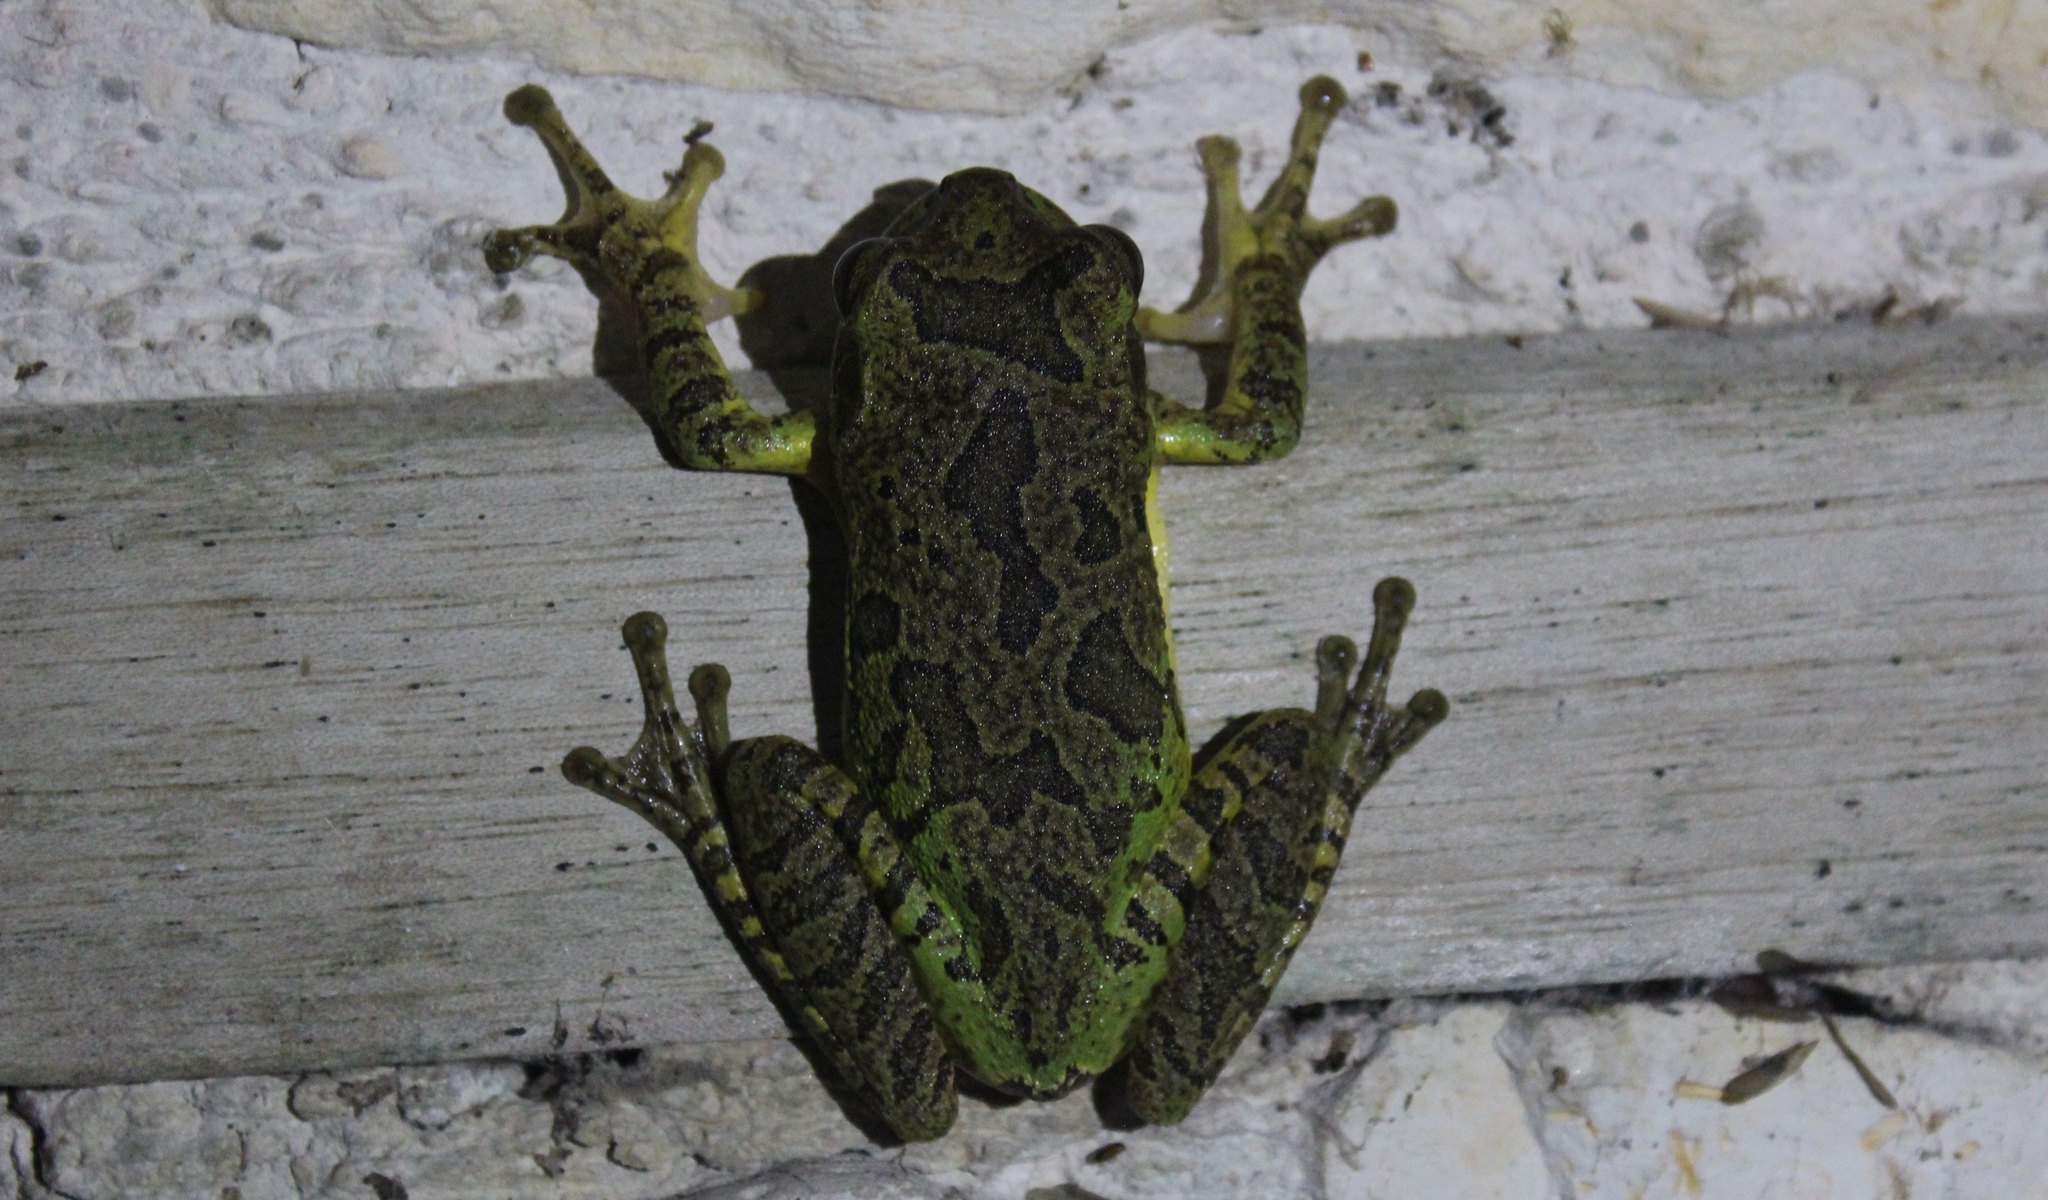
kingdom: Animalia
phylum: Chordata
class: Amphibia
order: Anura
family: Hylidae
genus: Smilisca
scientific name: Smilisca baudinii
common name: Mexican smilisca
